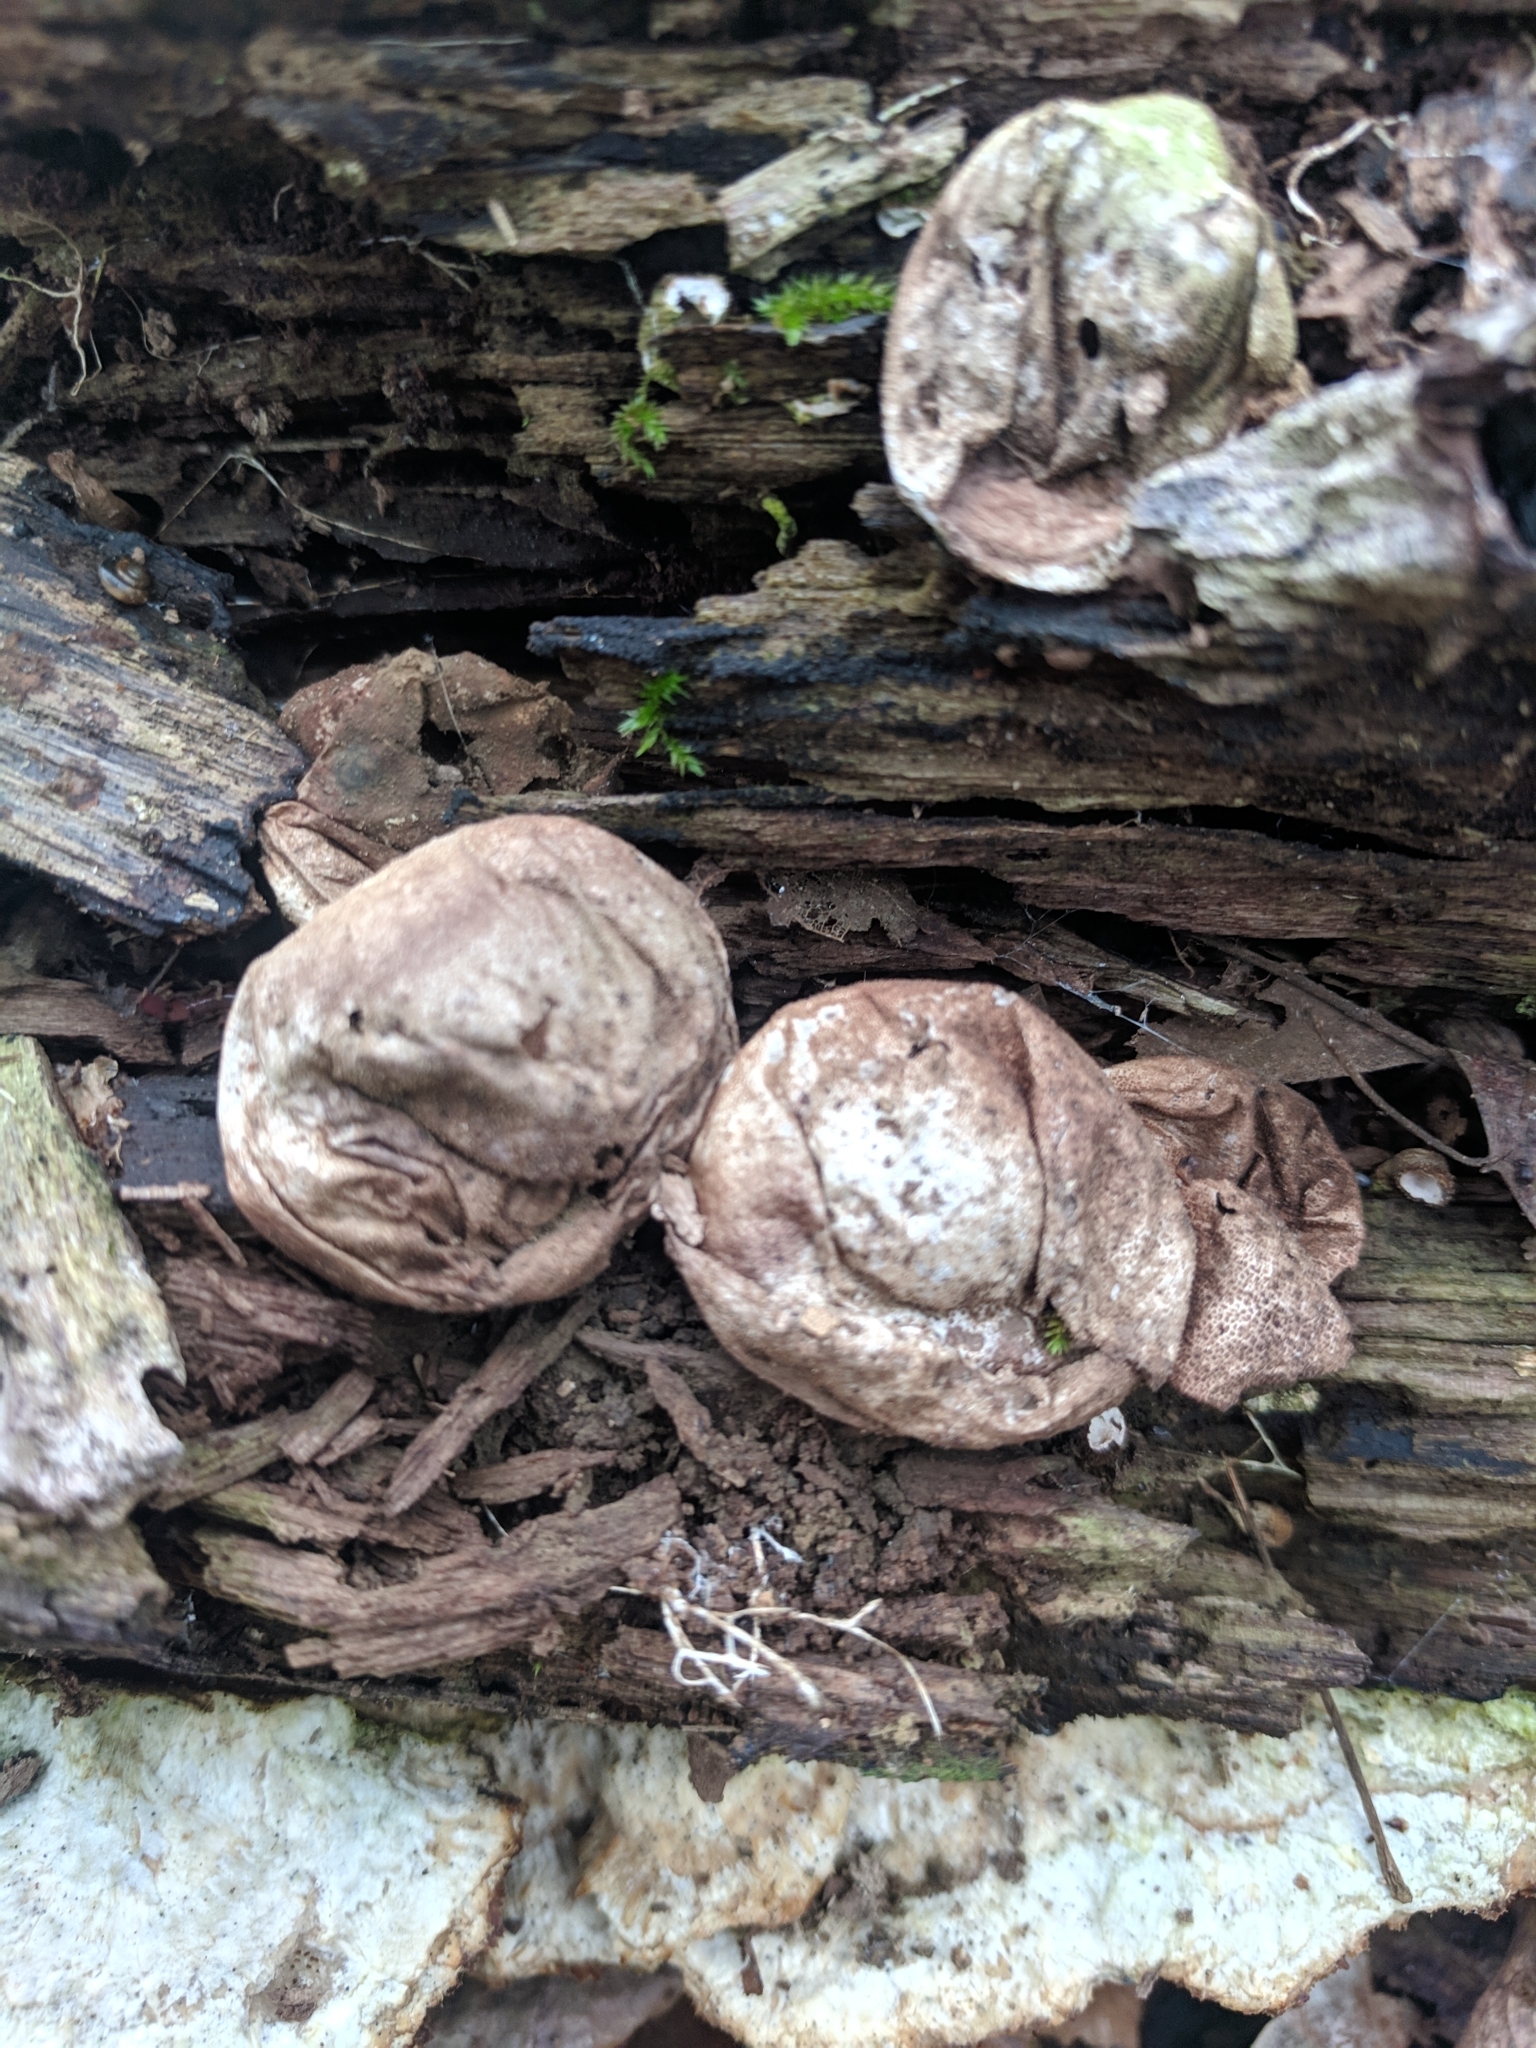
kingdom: Fungi
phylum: Basidiomycota
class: Agaricomycetes
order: Agaricales
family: Lycoperdaceae
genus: Apioperdon
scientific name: Apioperdon pyriforme
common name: Pear-shaped puffball
